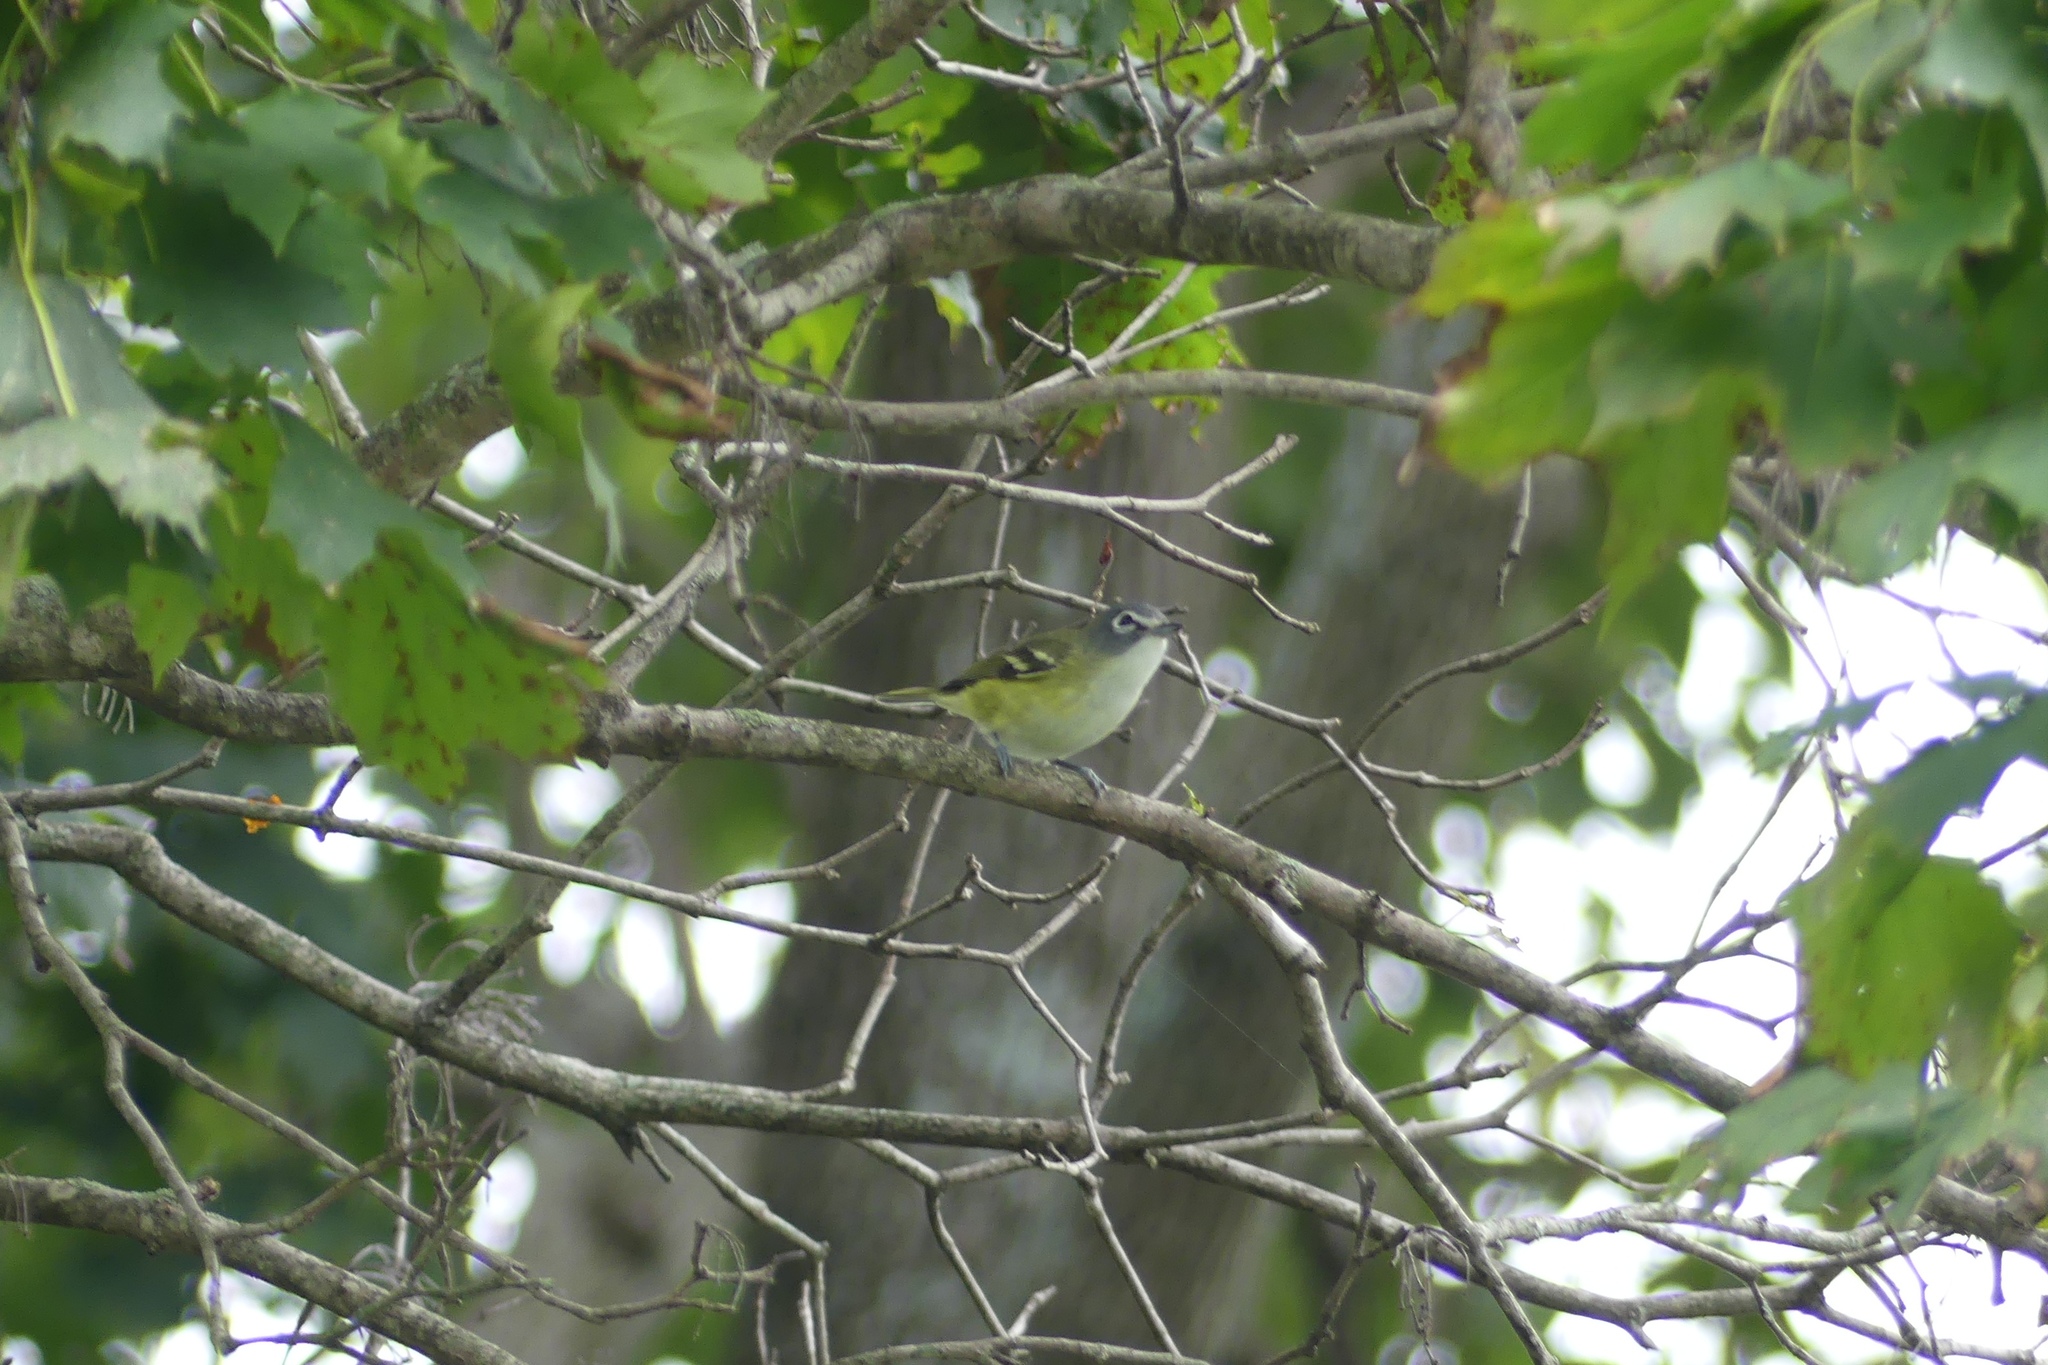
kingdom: Animalia
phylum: Chordata
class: Aves
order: Passeriformes
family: Vireonidae
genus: Vireo
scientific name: Vireo solitarius
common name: Blue-headed vireo
